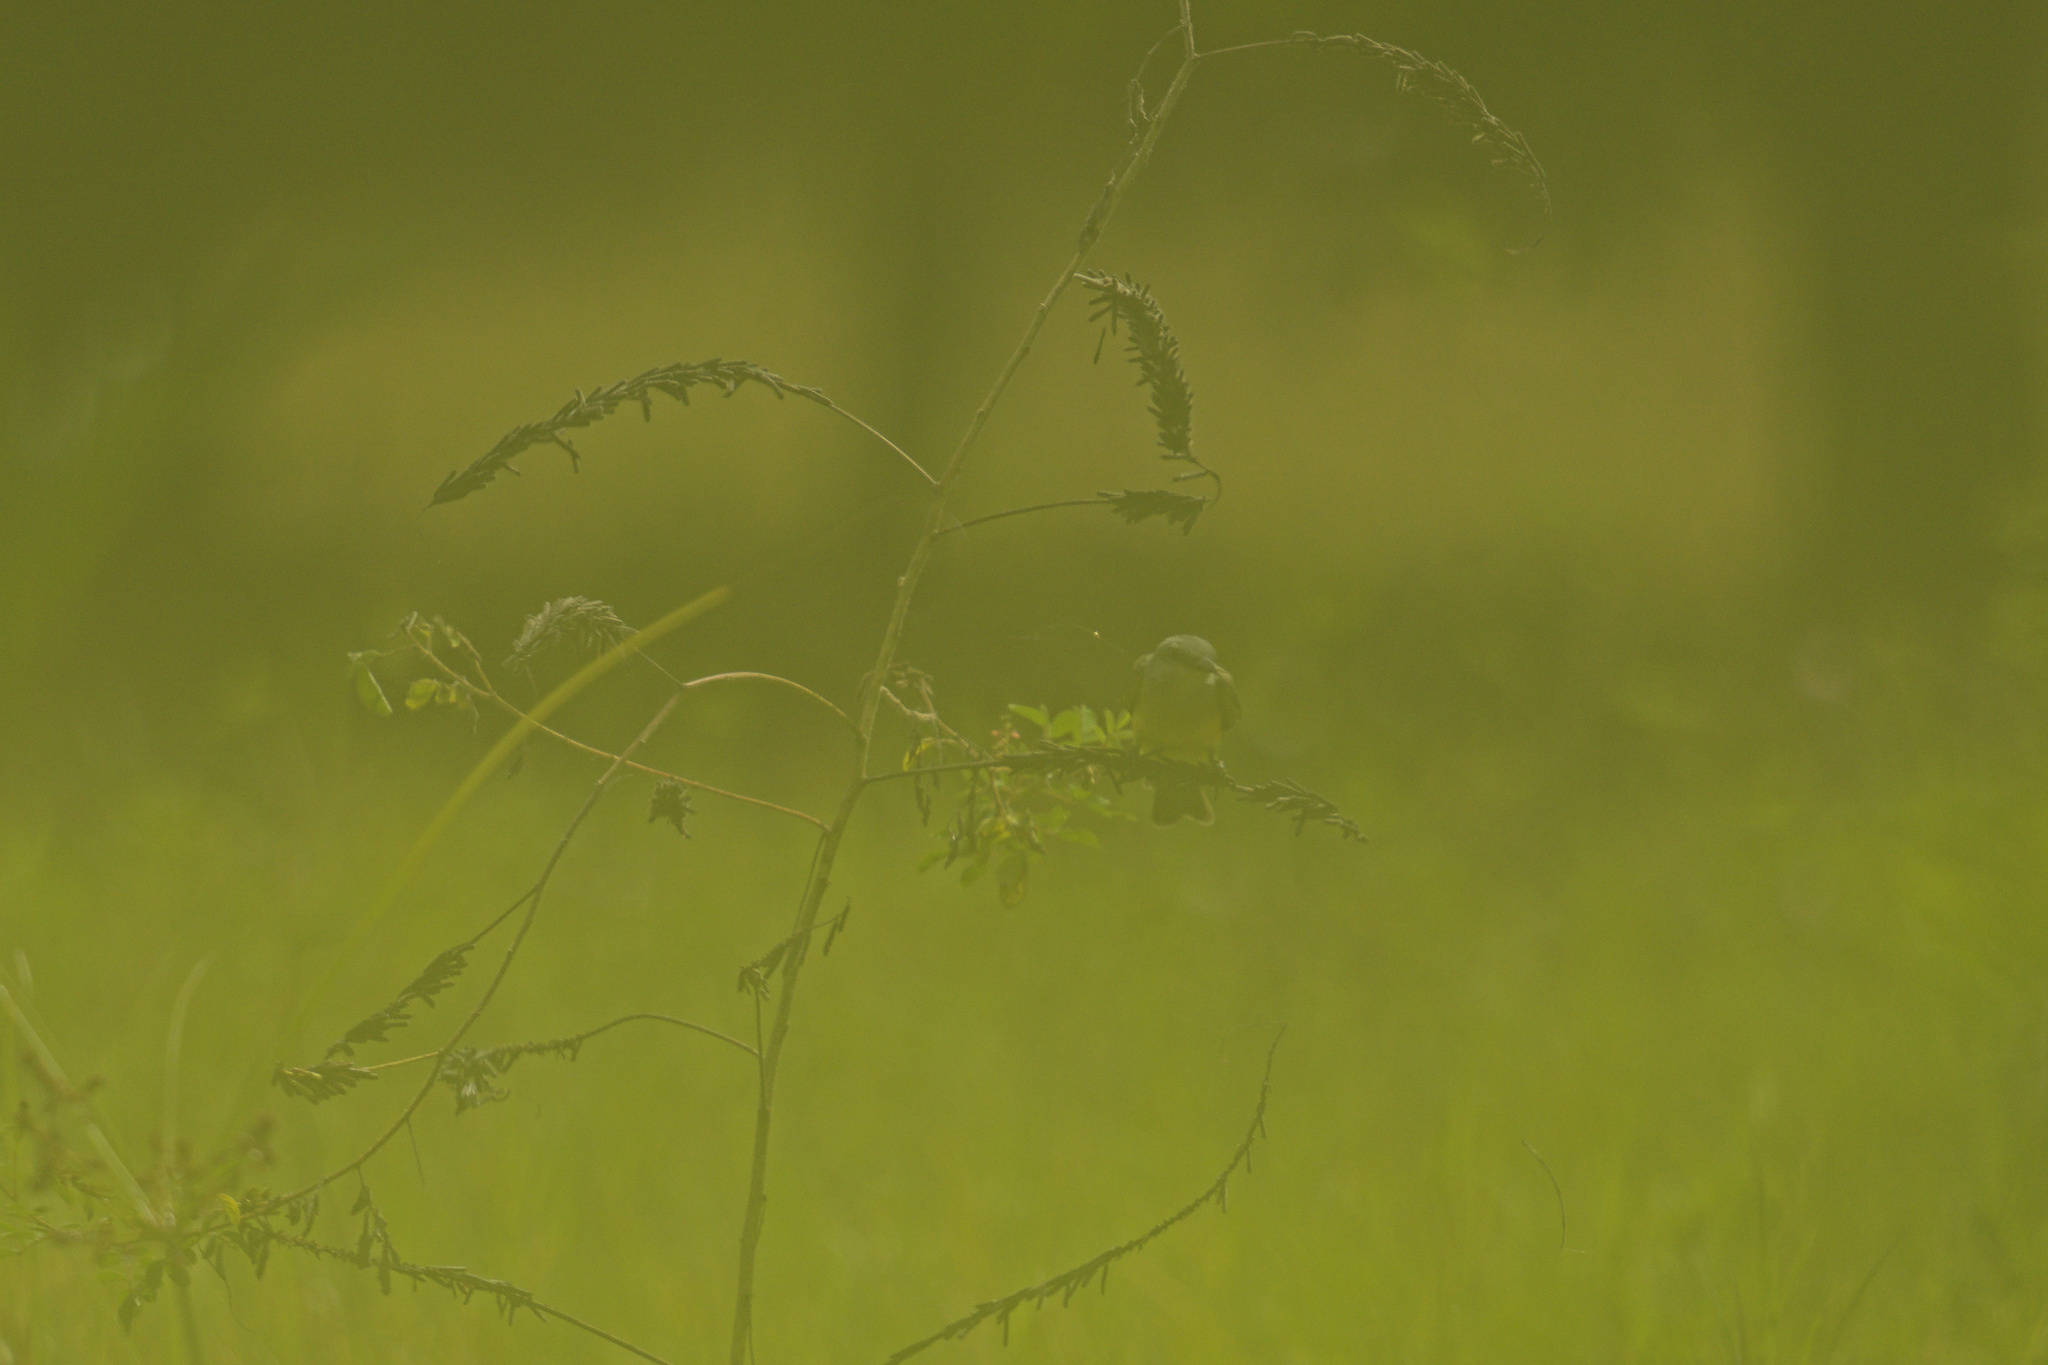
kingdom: Animalia
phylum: Chordata
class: Aves
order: Passeriformes
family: Tyrannidae
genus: Tyrannus
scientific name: Tyrannus melancholicus
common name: Tropical kingbird
